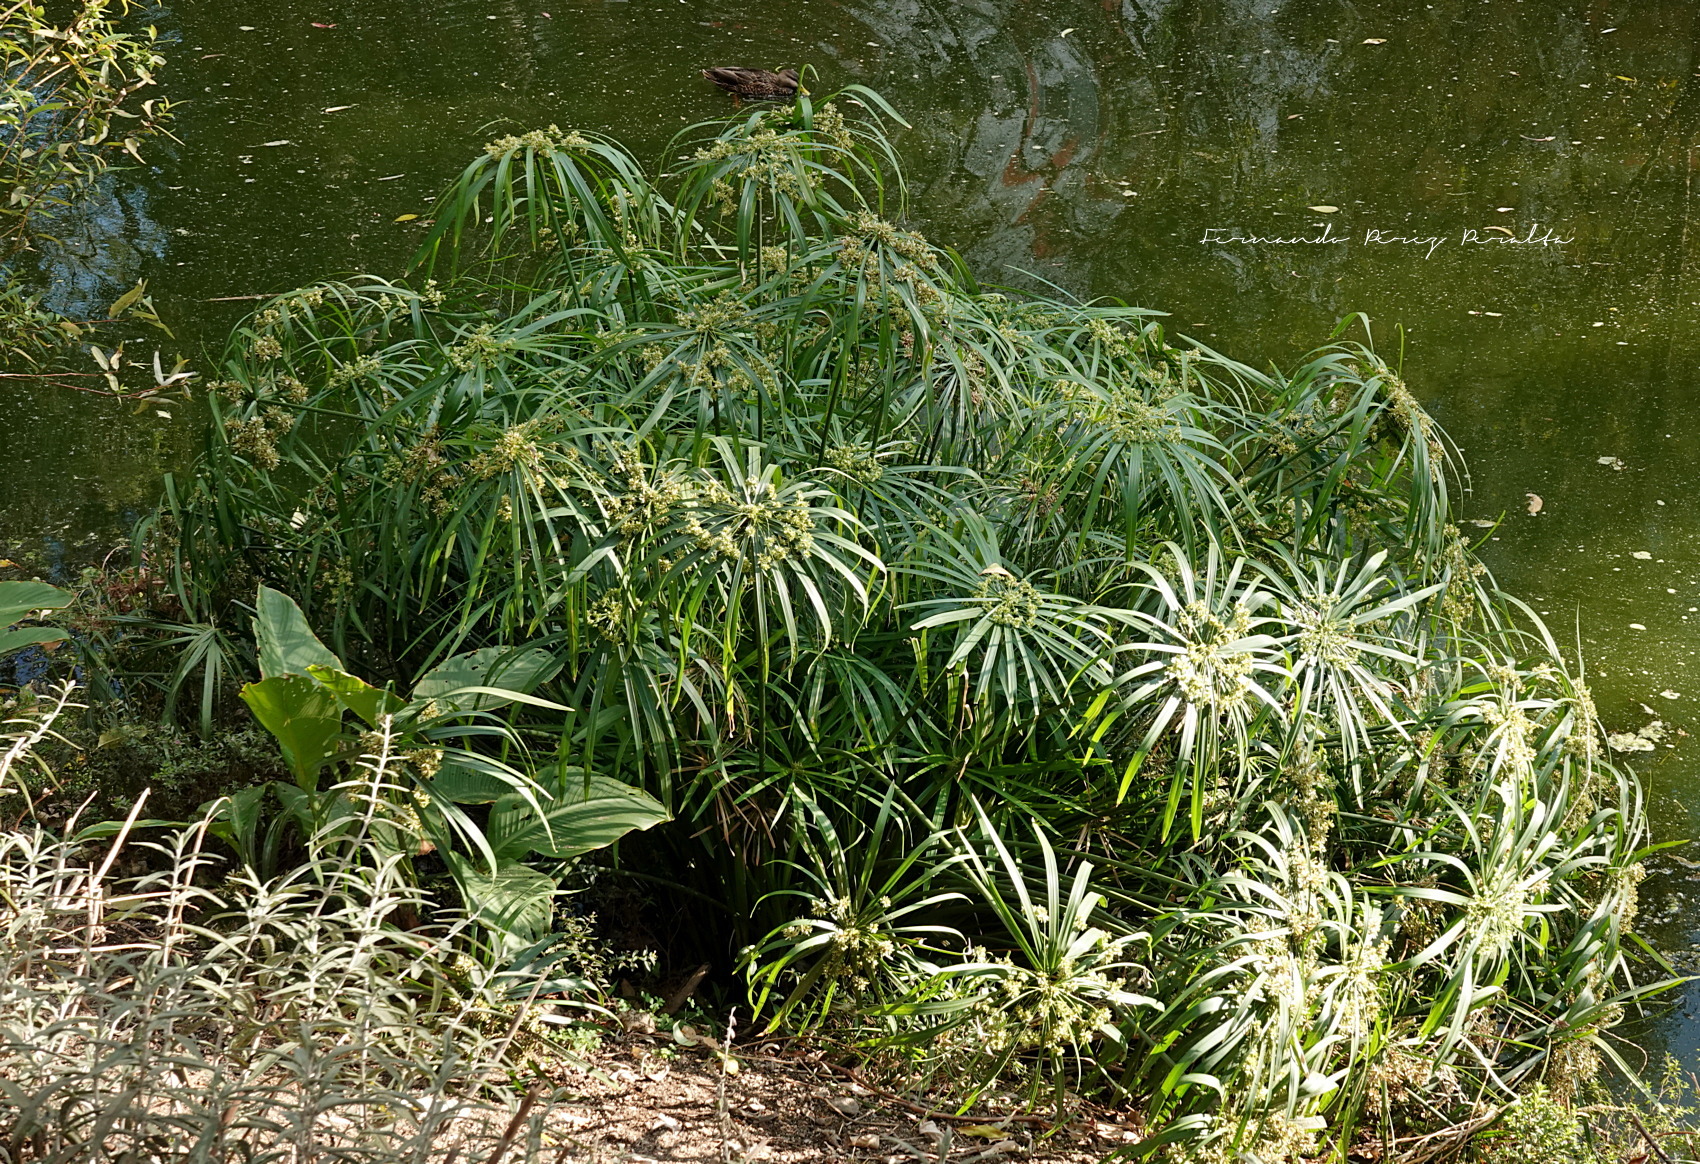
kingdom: Plantae
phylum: Tracheophyta
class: Liliopsida
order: Poales
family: Cyperaceae
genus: Cyperus
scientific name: Cyperus alternifolius
